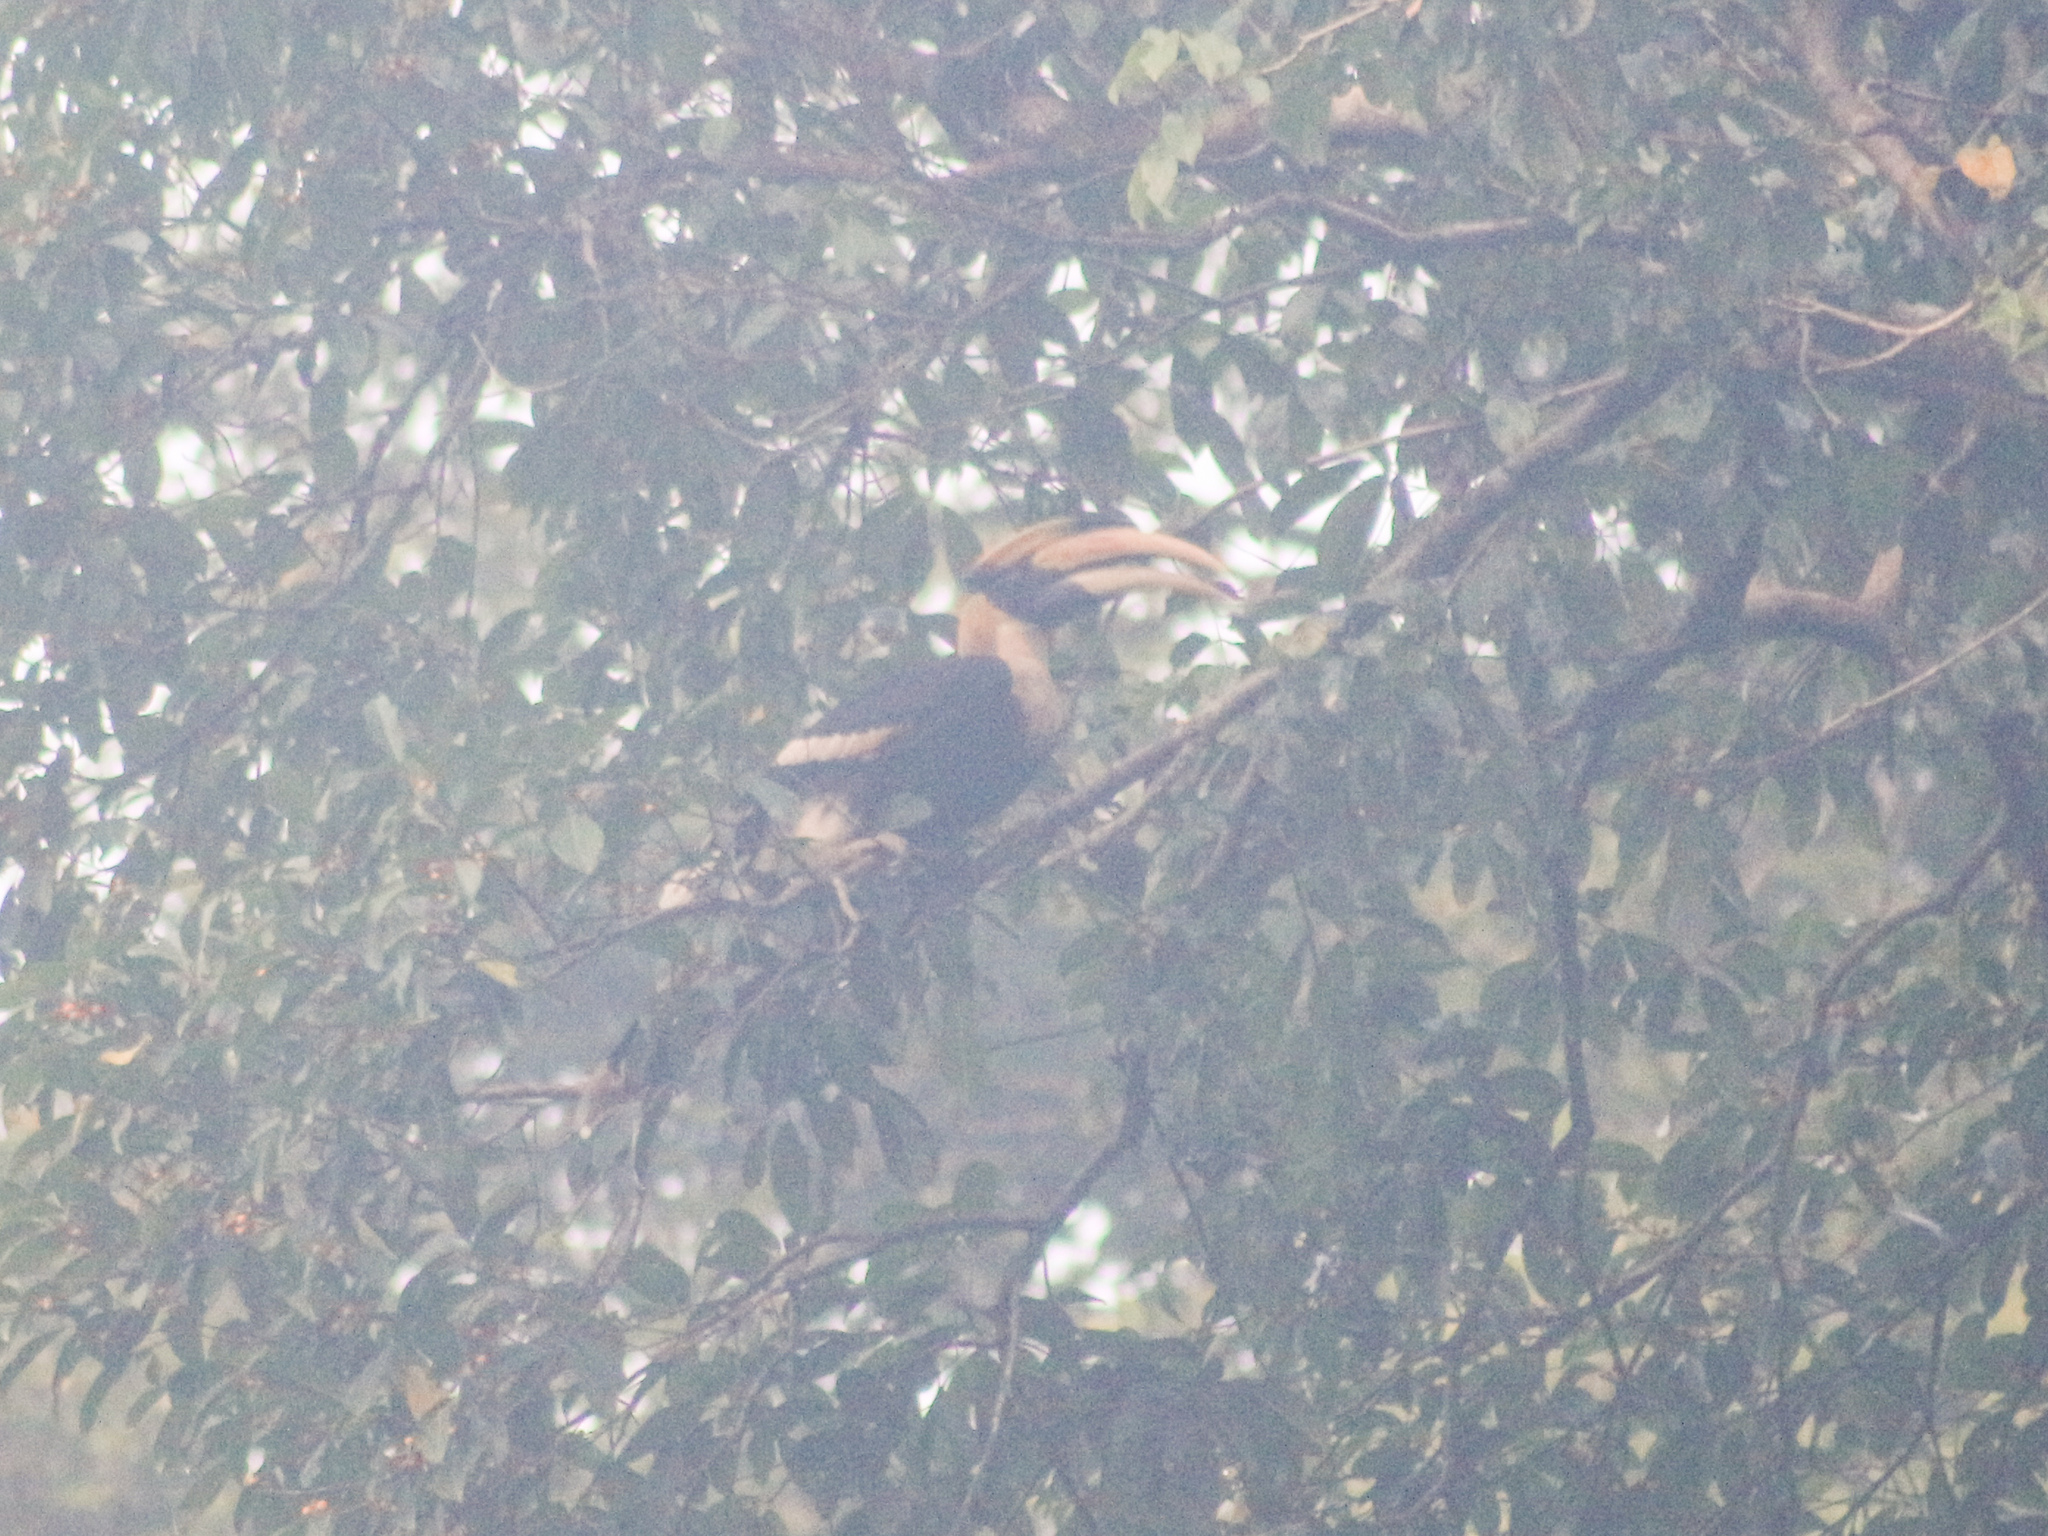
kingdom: Animalia
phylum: Chordata
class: Aves
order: Bucerotiformes
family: Bucerotidae
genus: Buceros
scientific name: Buceros bicornis
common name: Great hornbill
